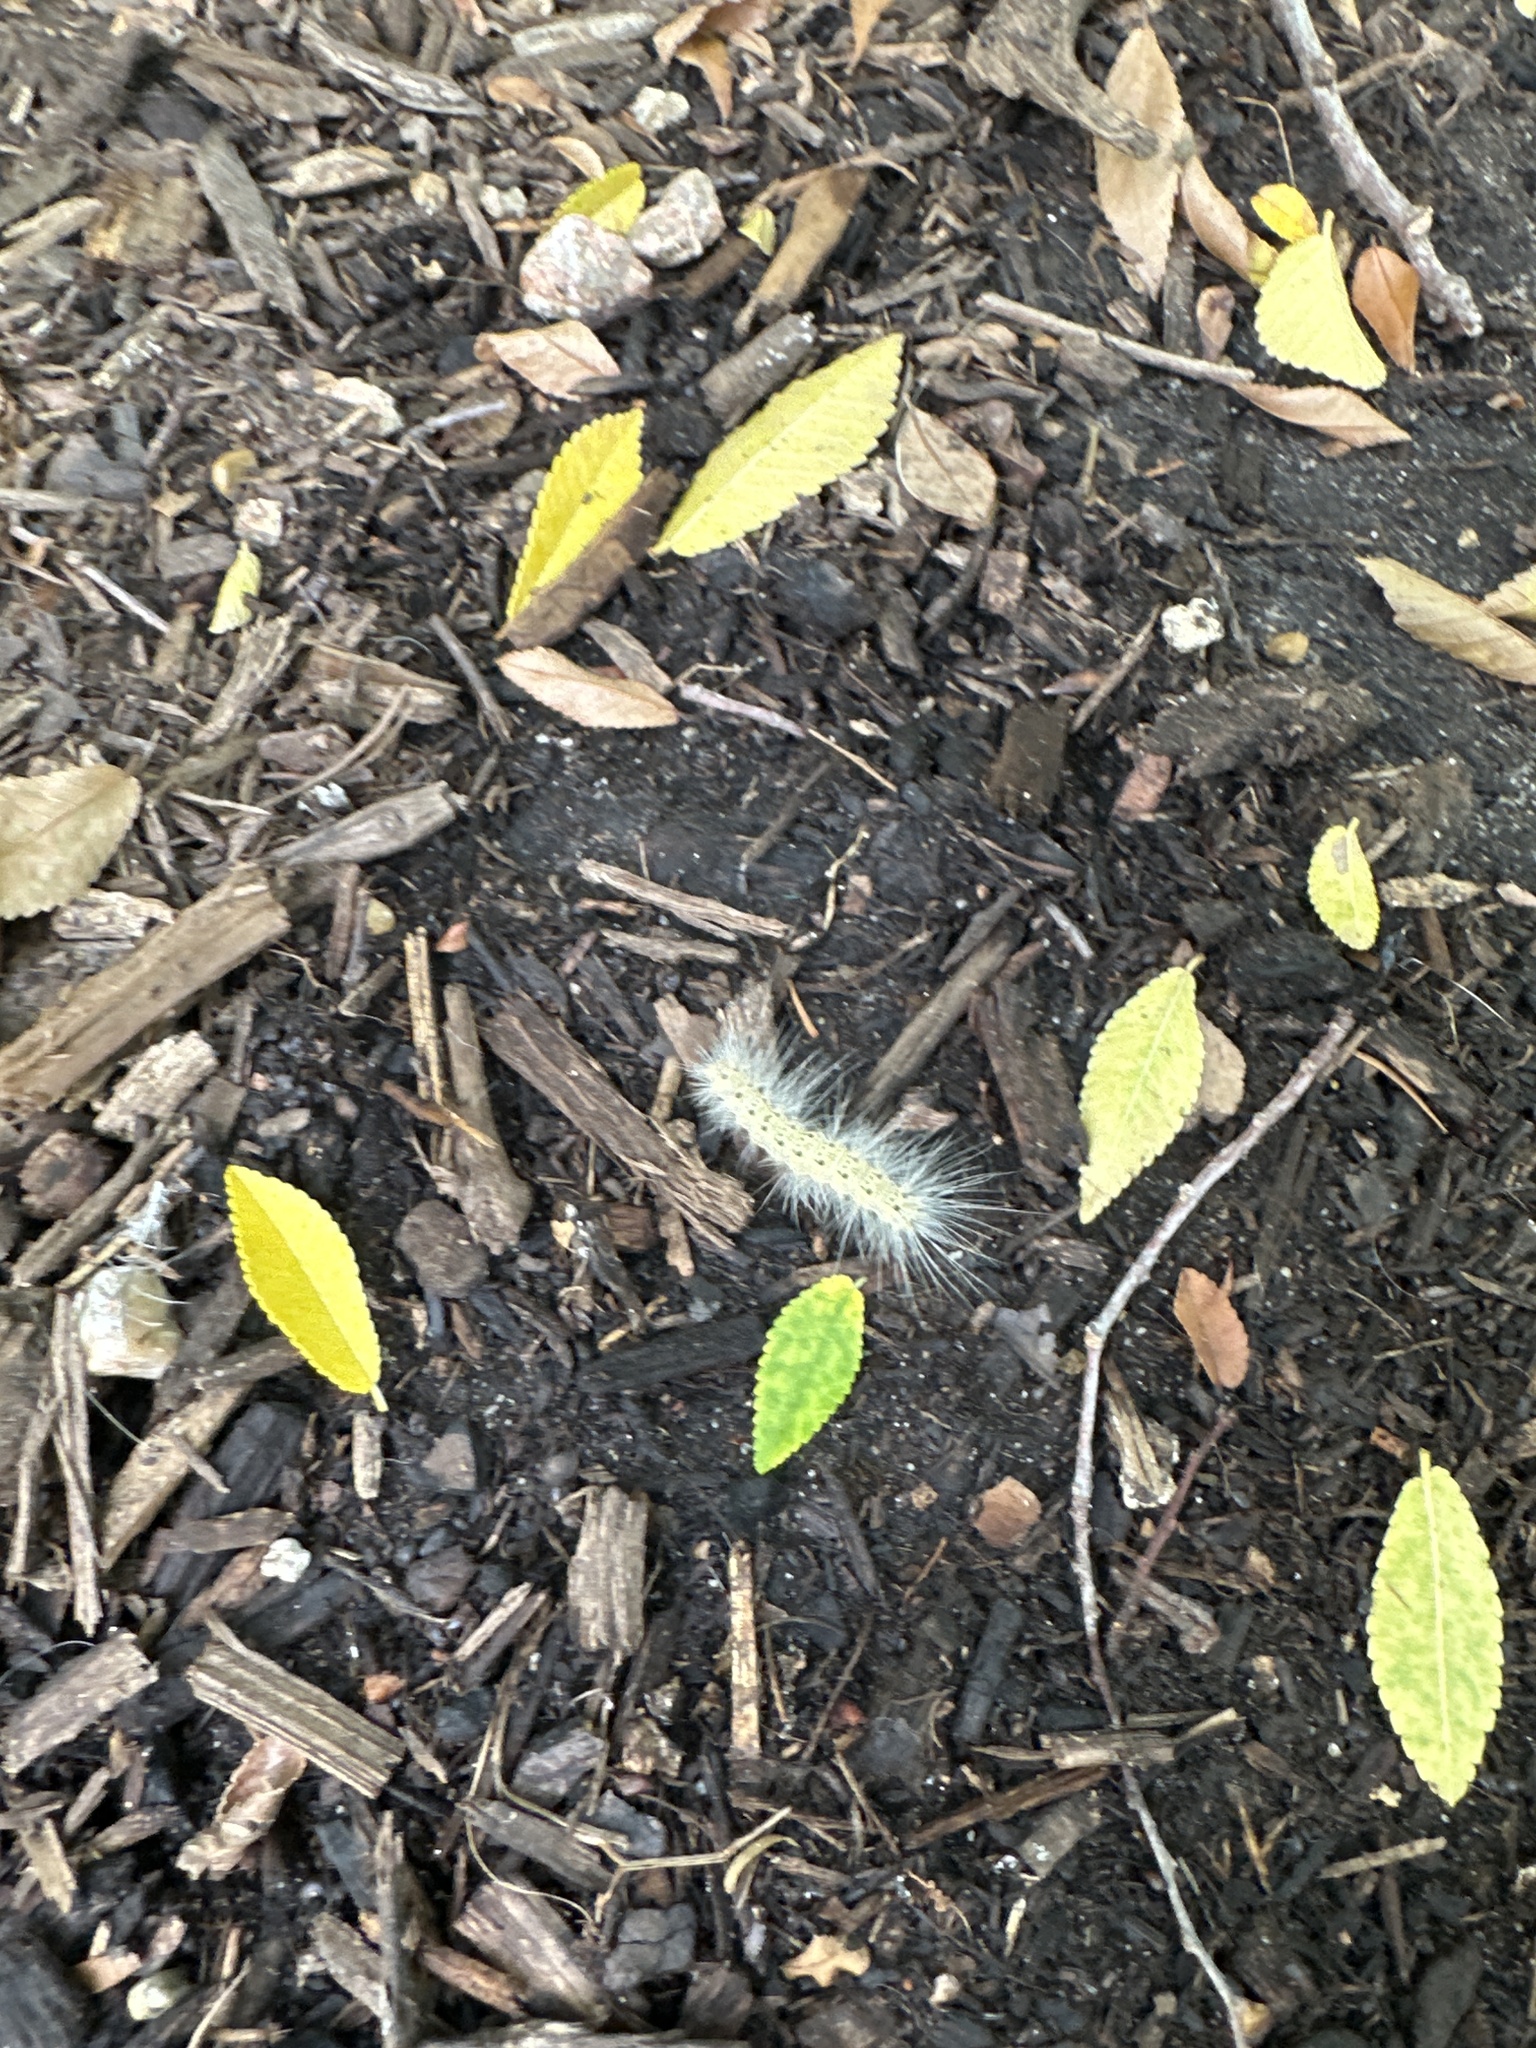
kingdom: Animalia
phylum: Arthropoda
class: Insecta
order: Lepidoptera
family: Erebidae
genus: Hyphantria
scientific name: Hyphantria cunea
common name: American white moth
